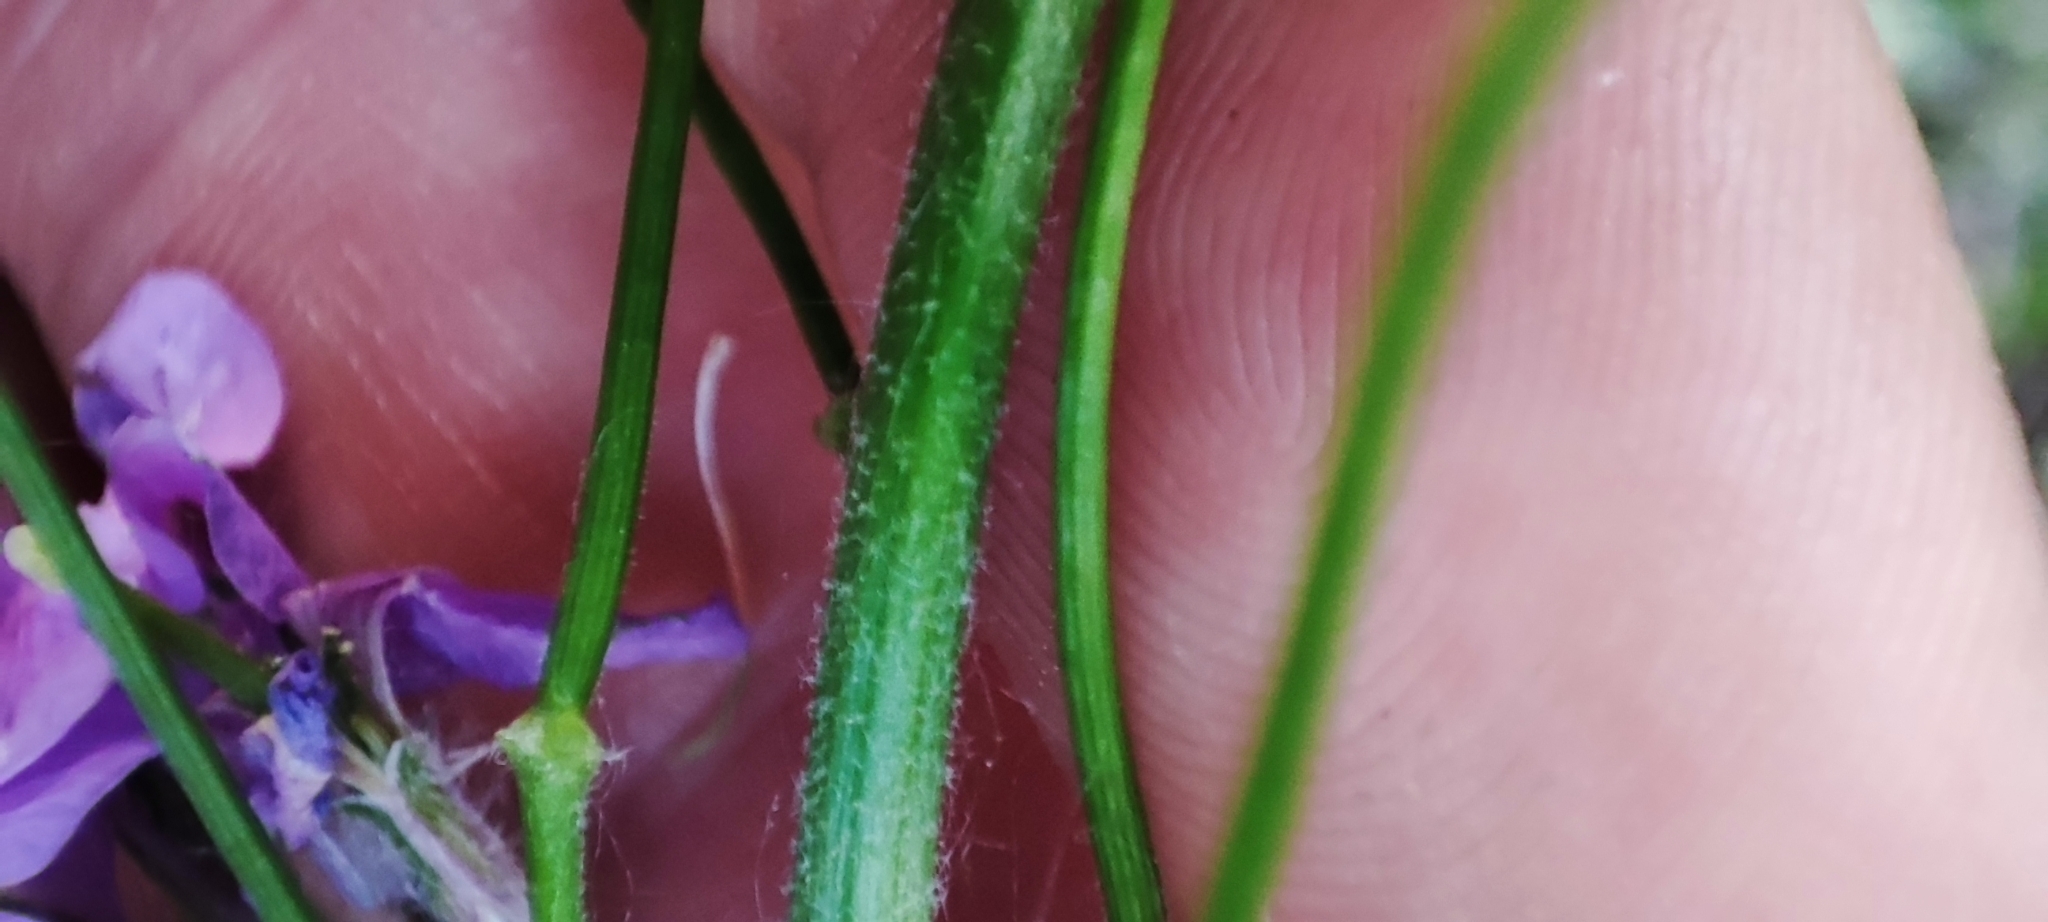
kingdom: Plantae
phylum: Tracheophyta
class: Magnoliopsida
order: Brassicales
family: Brassicaceae
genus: Hesperis
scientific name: Hesperis matronalis
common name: Dame's-violet
